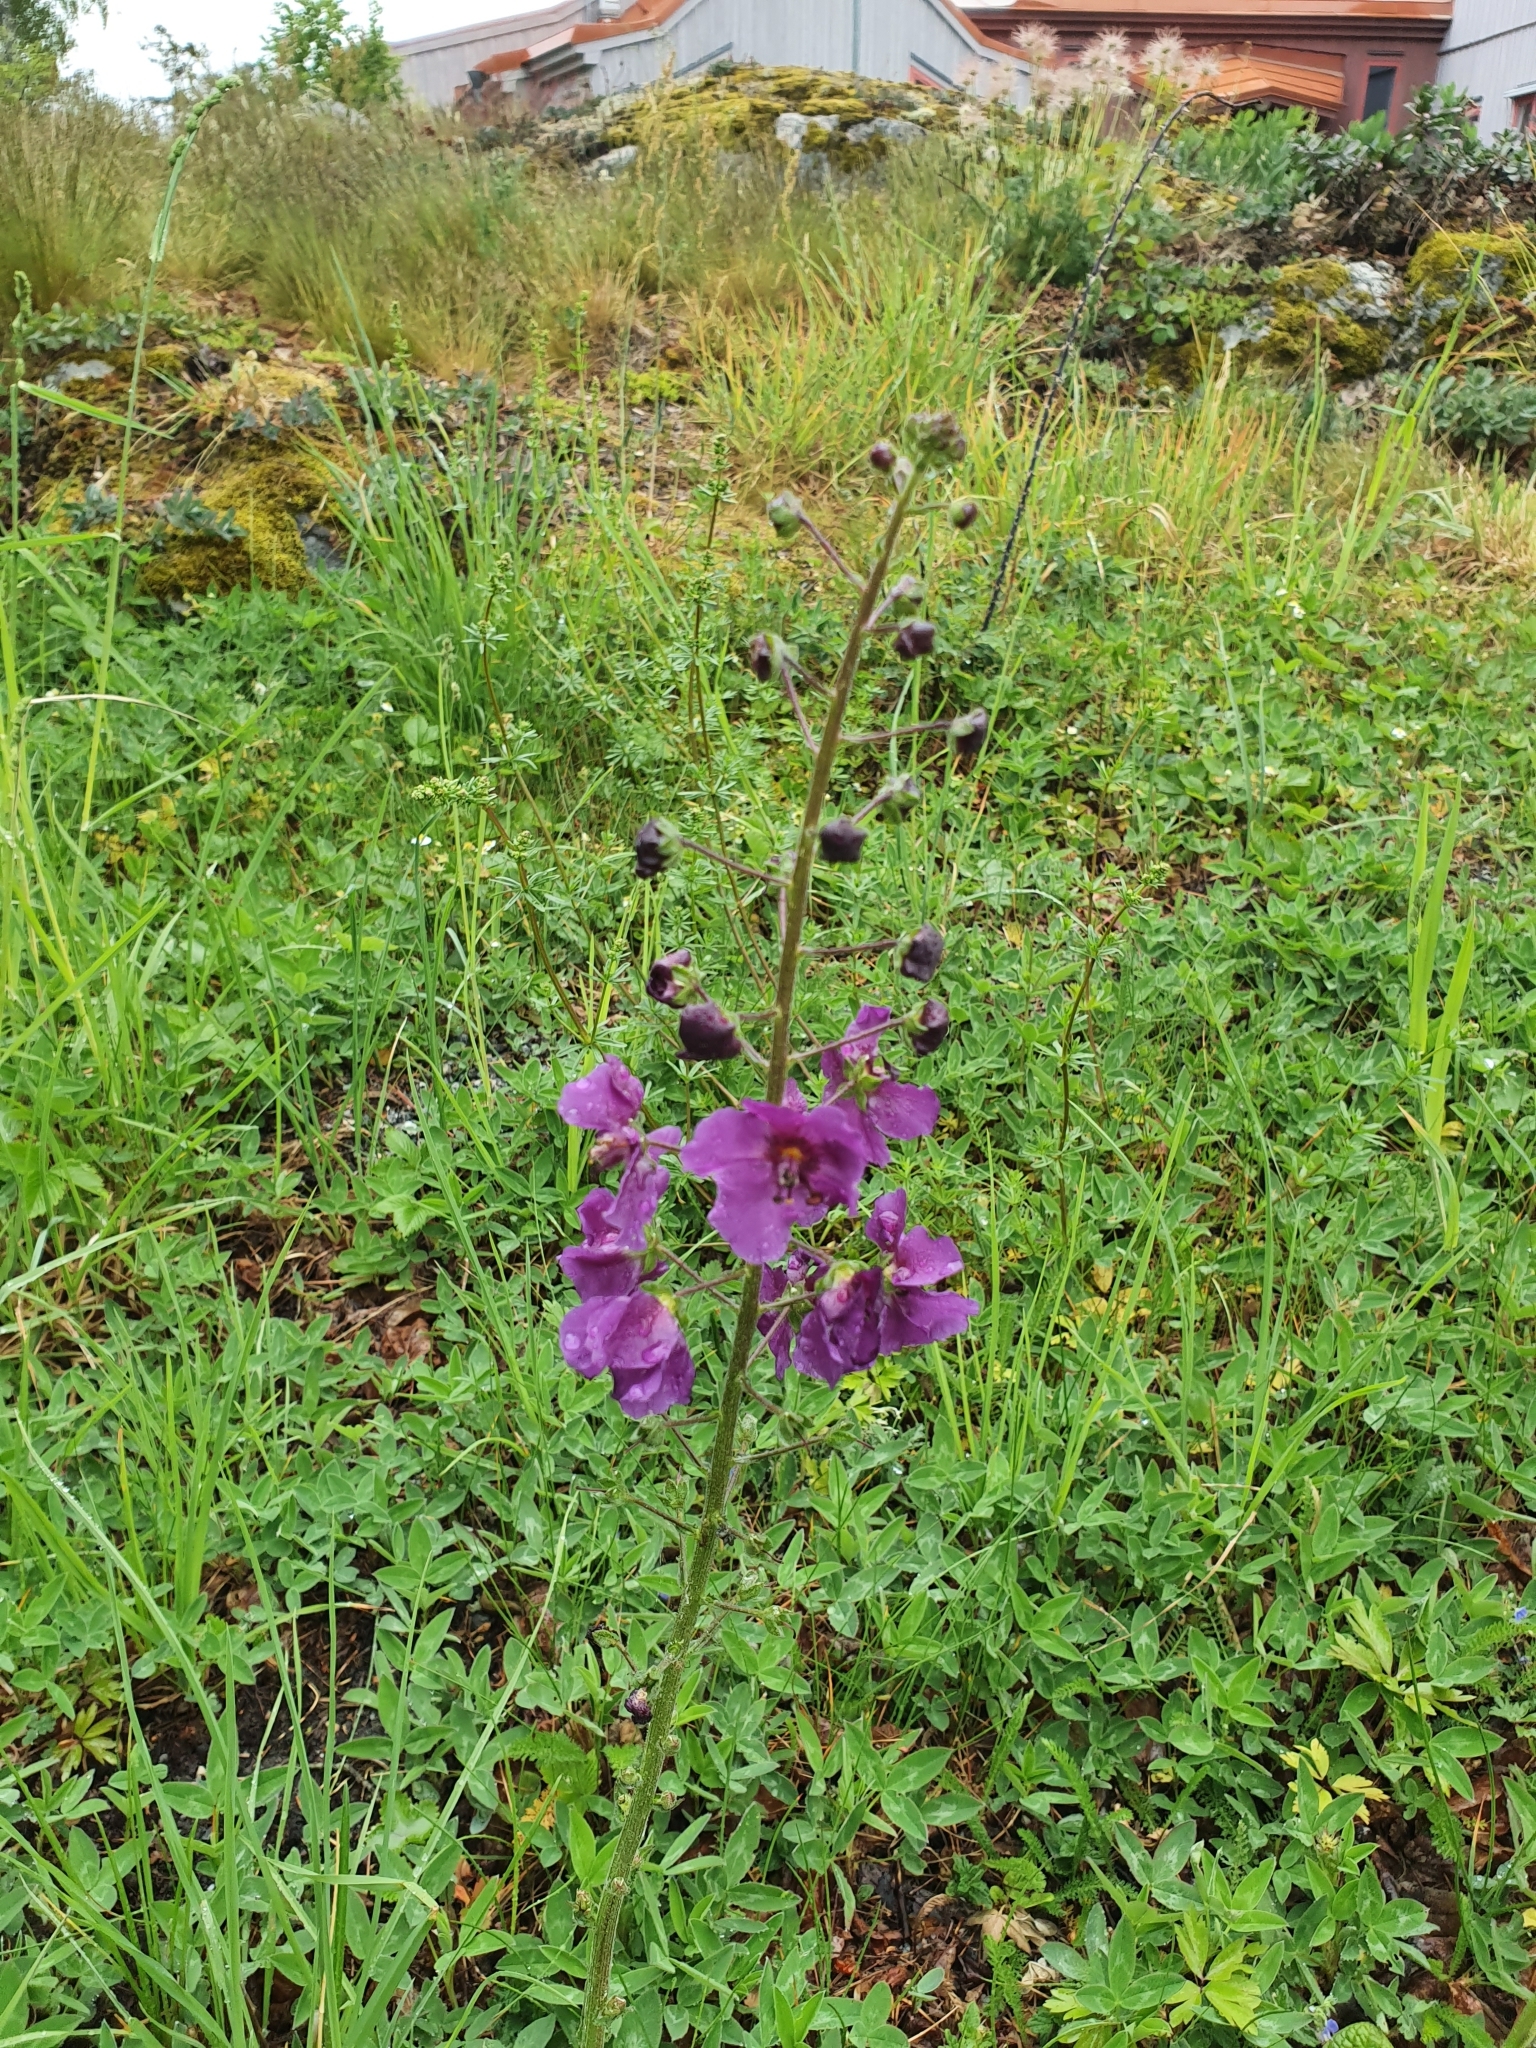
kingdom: Plantae
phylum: Tracheophyta
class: Magnoliopsida
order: Lamiales
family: Scrophulariaceae
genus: Verbascum
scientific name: Verbascum phoeniceum
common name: Purple mullein
